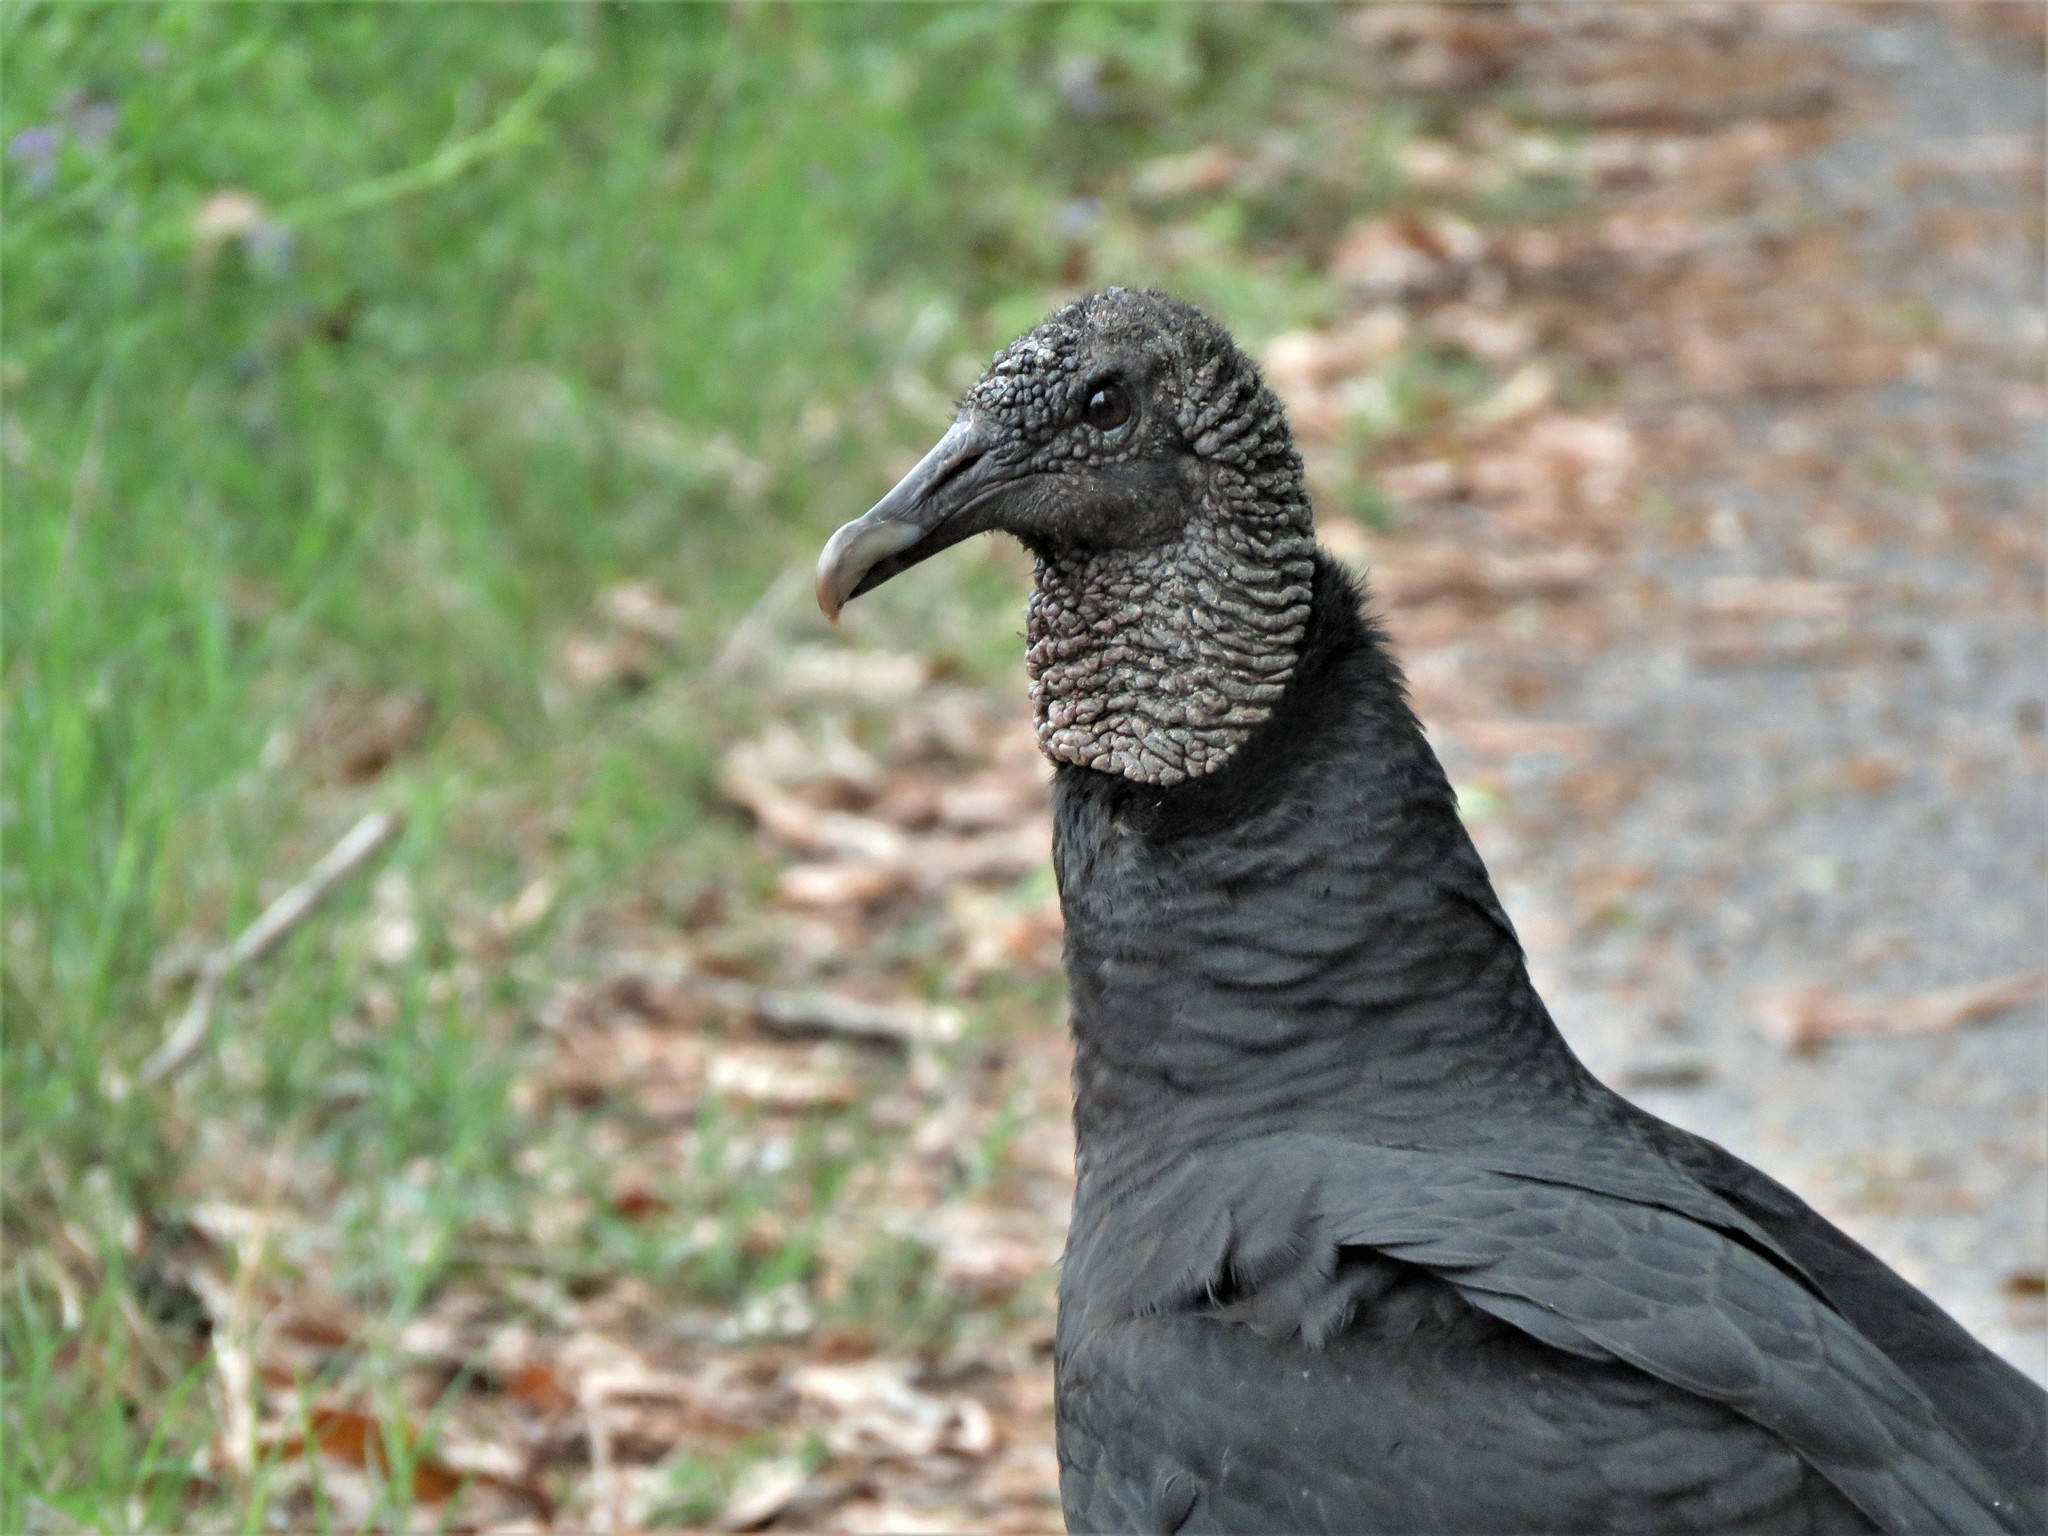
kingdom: Animalia
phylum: Chordata
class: Aves
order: Accipitriformes
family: Cathartidae
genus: Coragyps
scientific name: Coragyps atratus
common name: Black vulture
